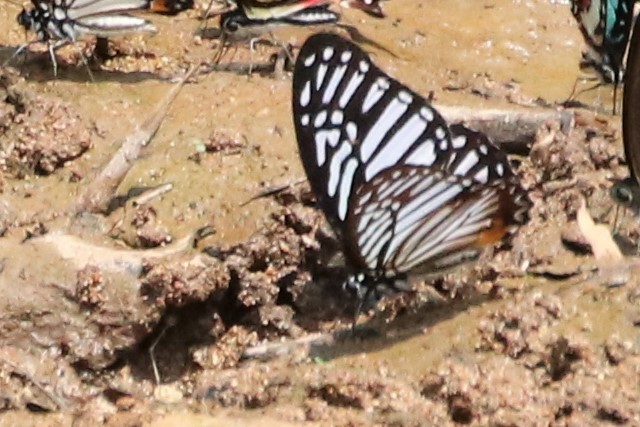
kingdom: Animalia
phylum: Arthropoda
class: Insecta
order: Lepidoptera
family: Papilionidae
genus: Graphium
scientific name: Graphium xenocles
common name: Great zebra
